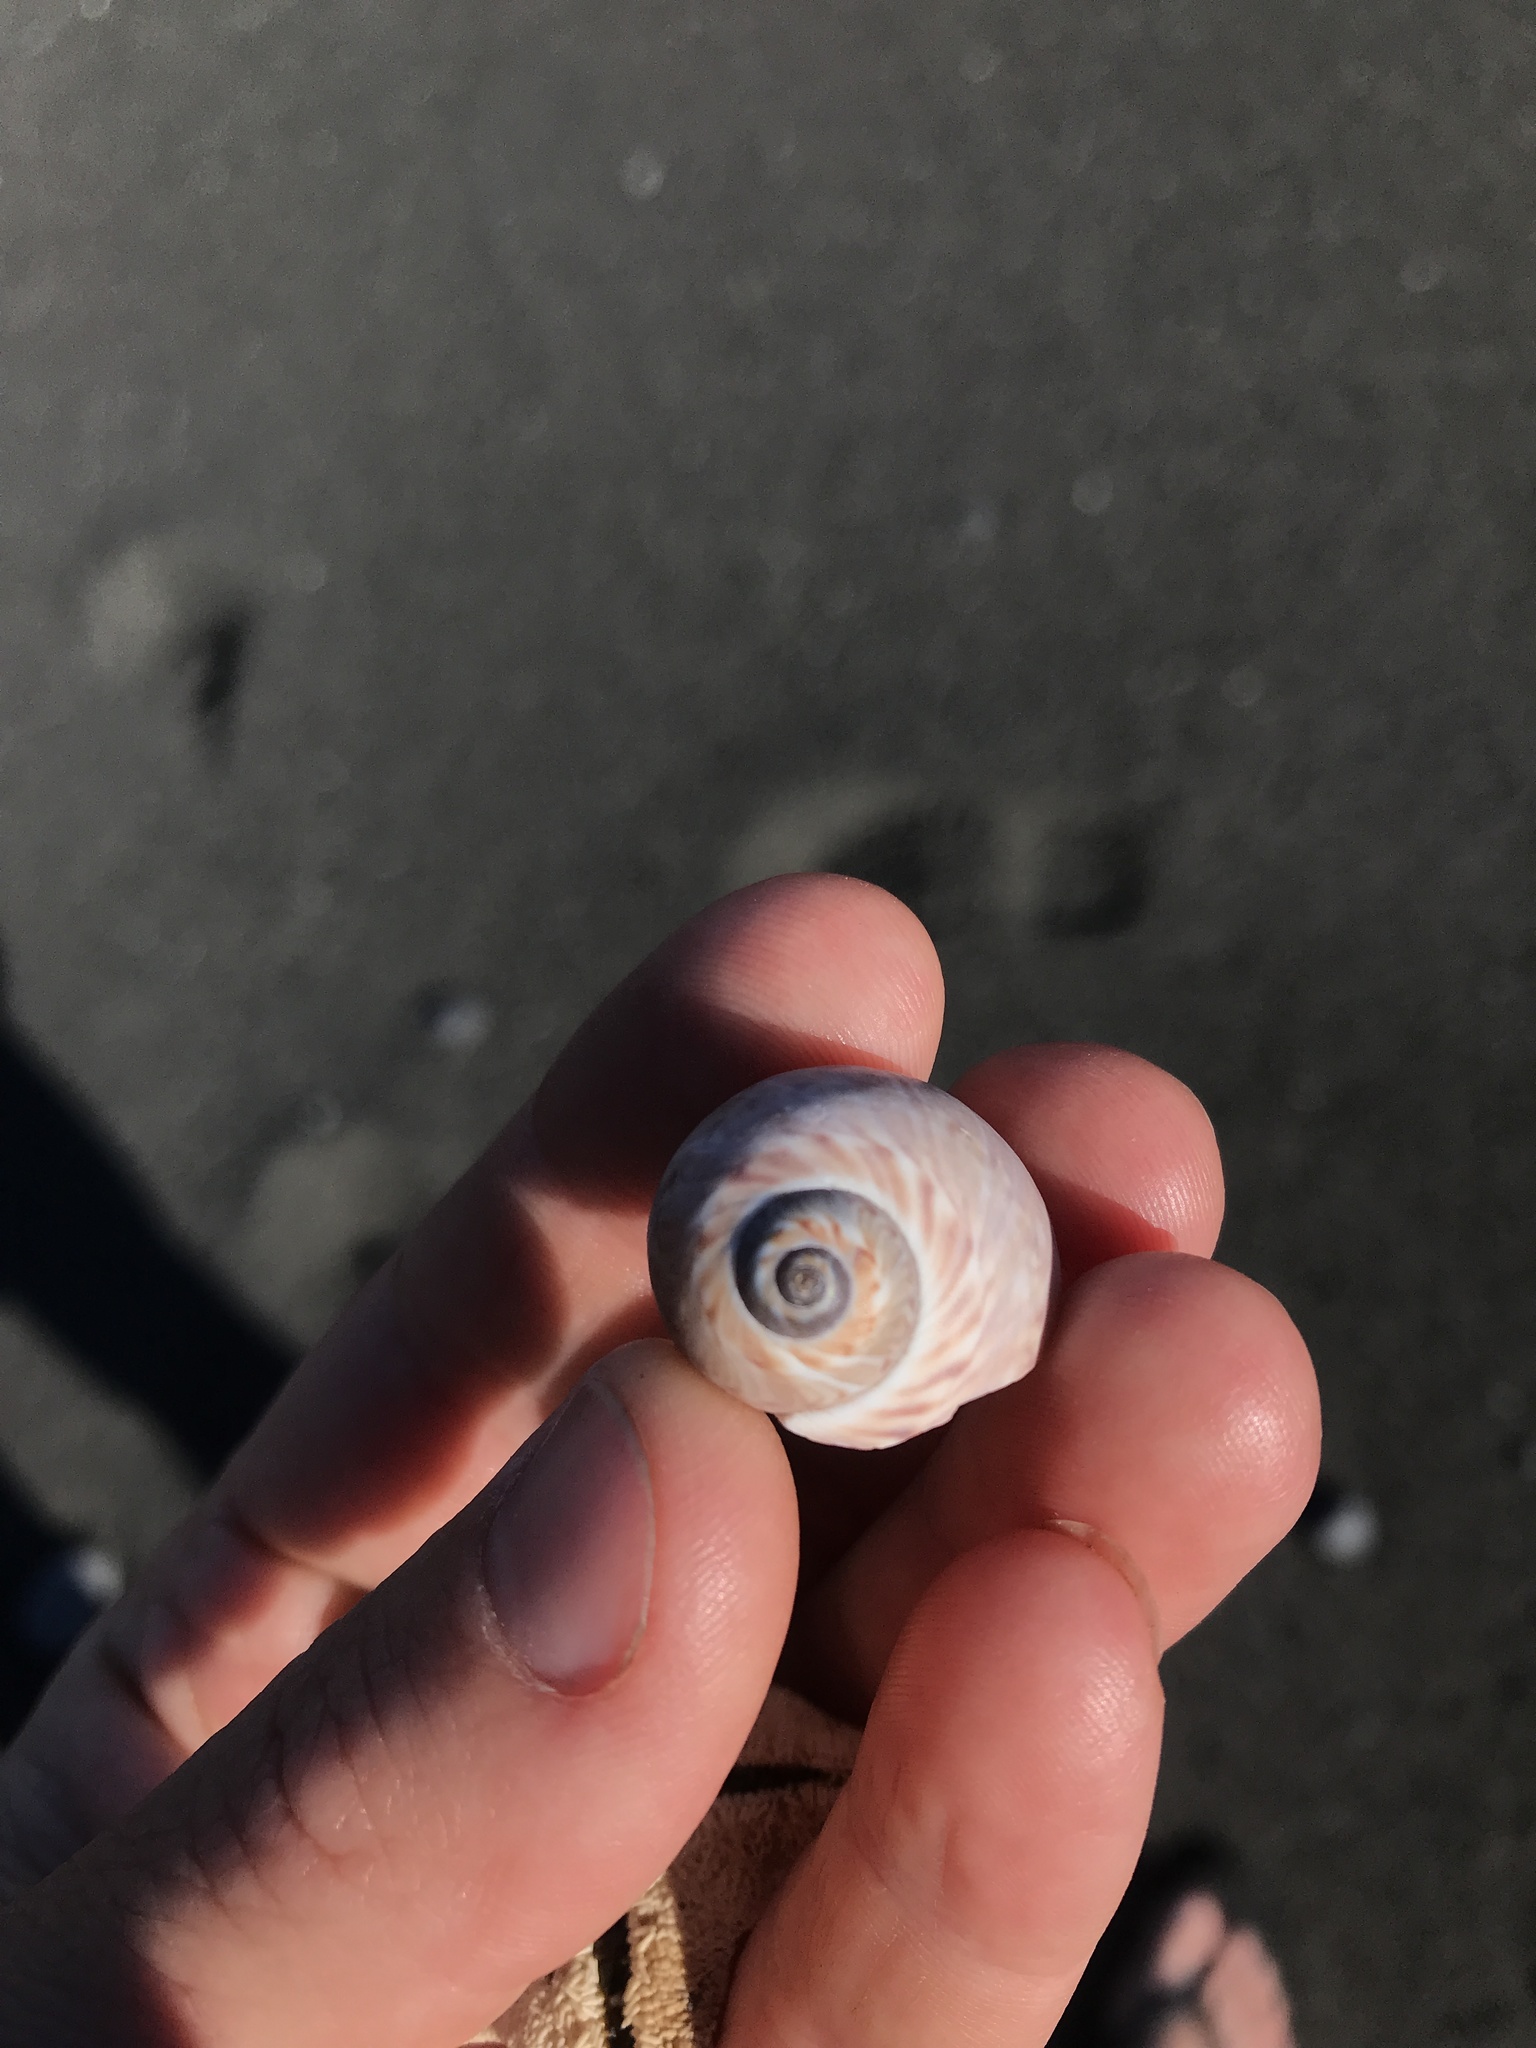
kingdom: Animalia
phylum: Mollusca
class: Gastropoda
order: Littorinimorpha
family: Naticidae
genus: Tanea
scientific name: Tanea zelandica
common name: New zealand moonsnail
